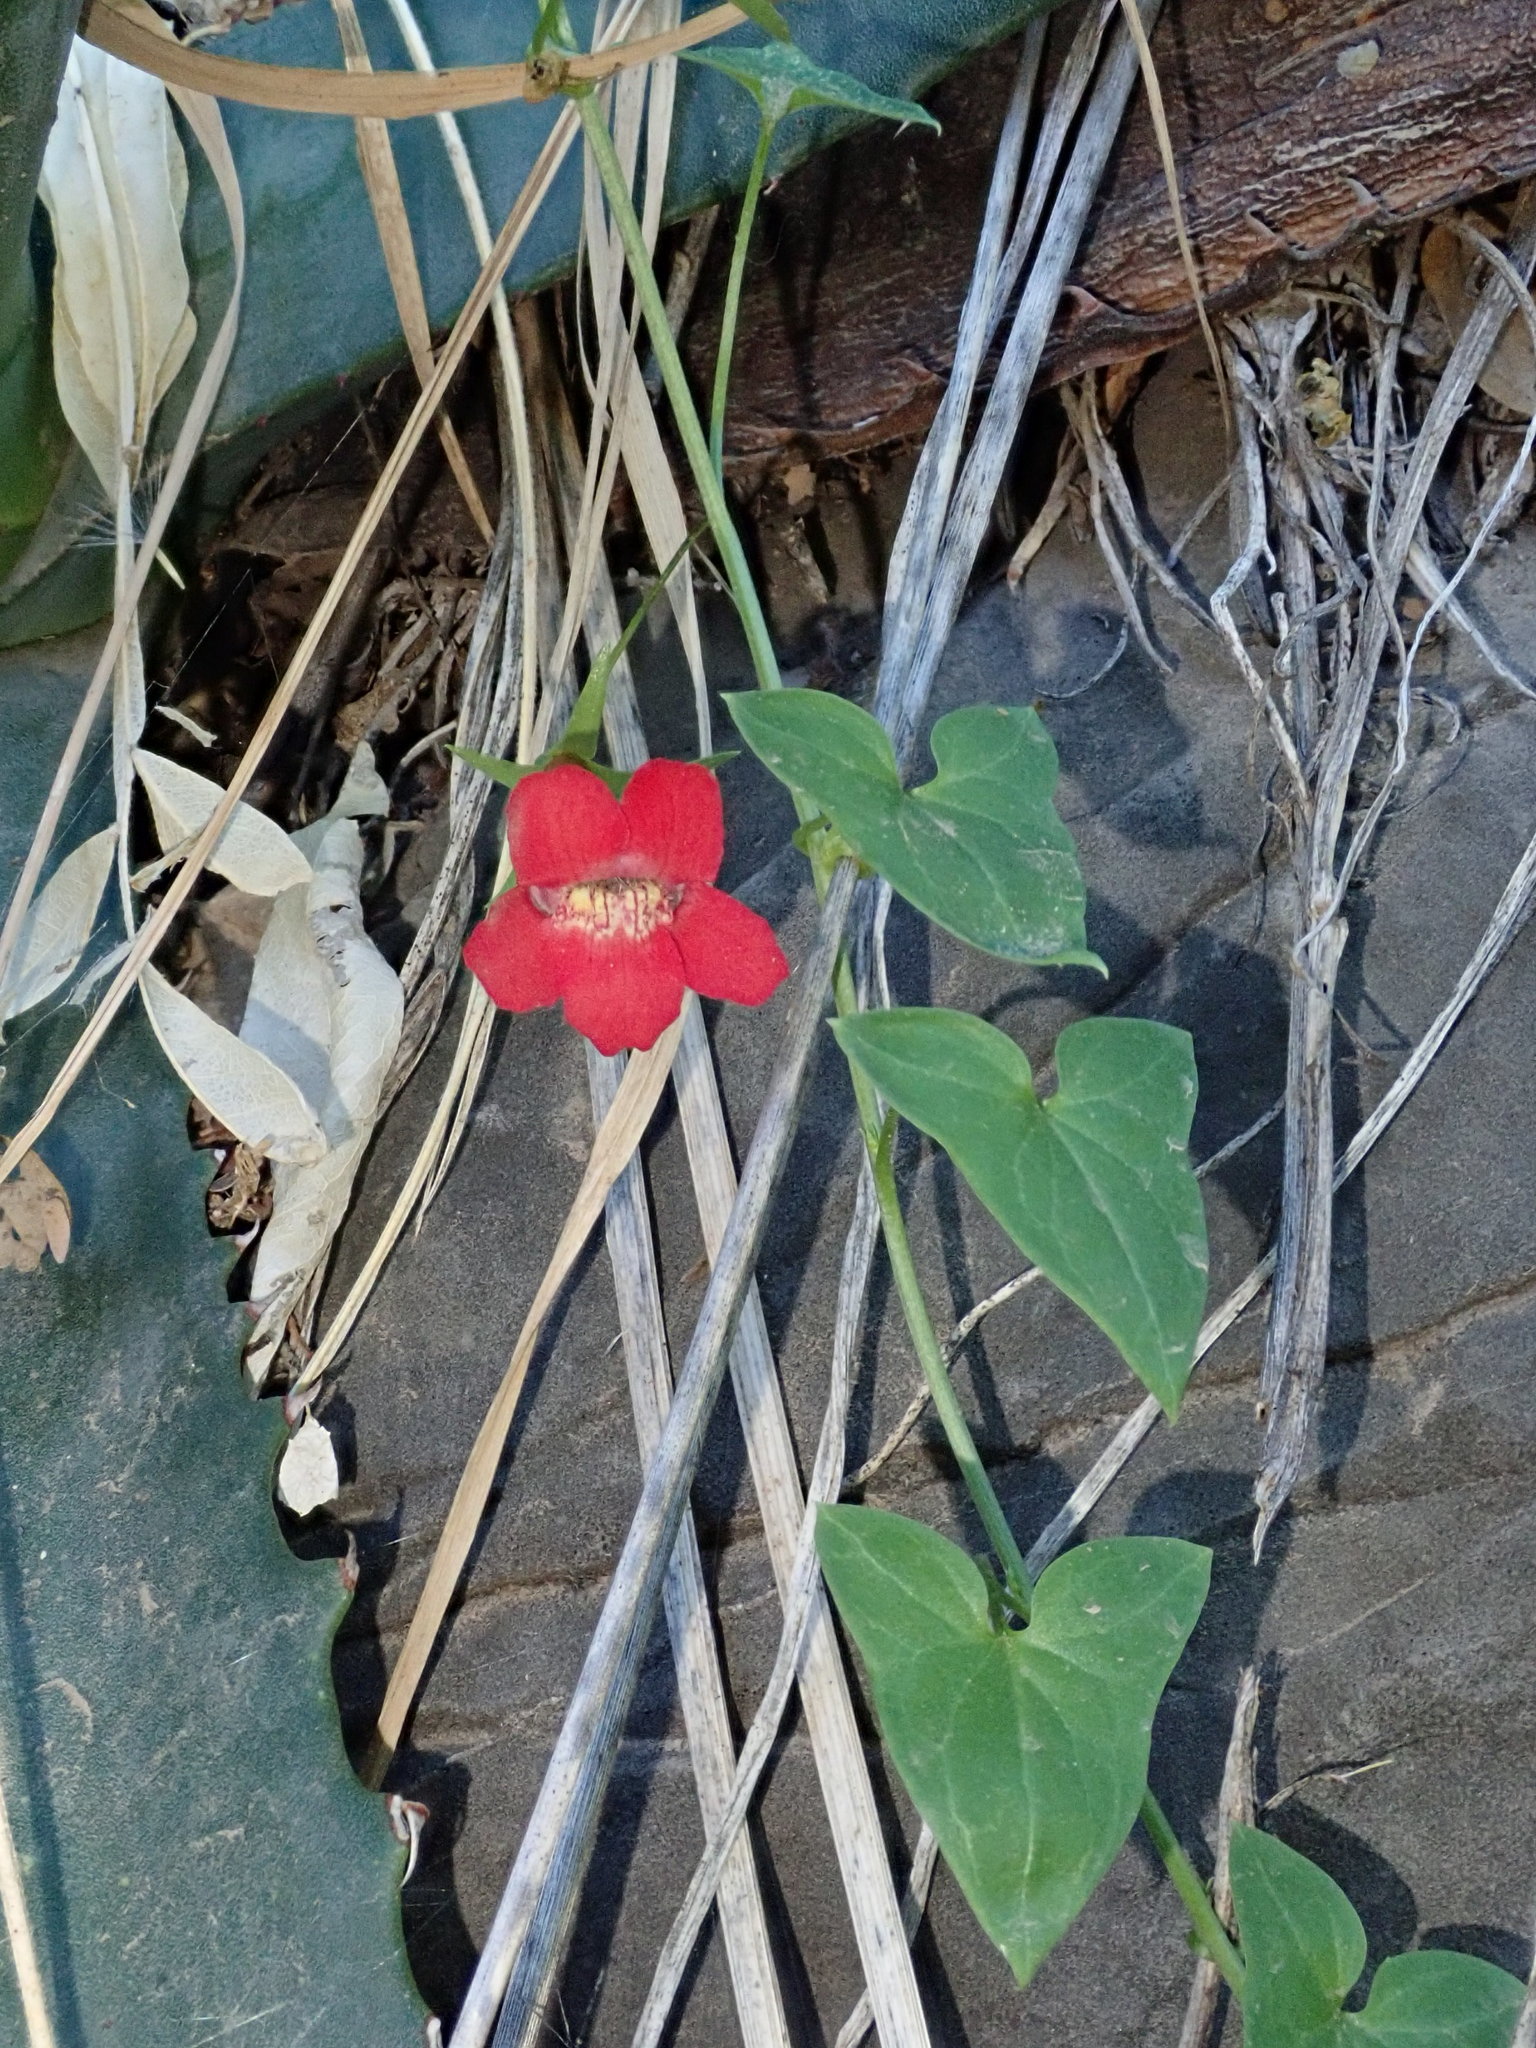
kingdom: Plantae
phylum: Tracheophyta
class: Magnoliopsida
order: Lamiales
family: Plantaginaceae
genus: Maurandella
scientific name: Maurandella antirrhiniflora
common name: Violet twining-snapdragon
